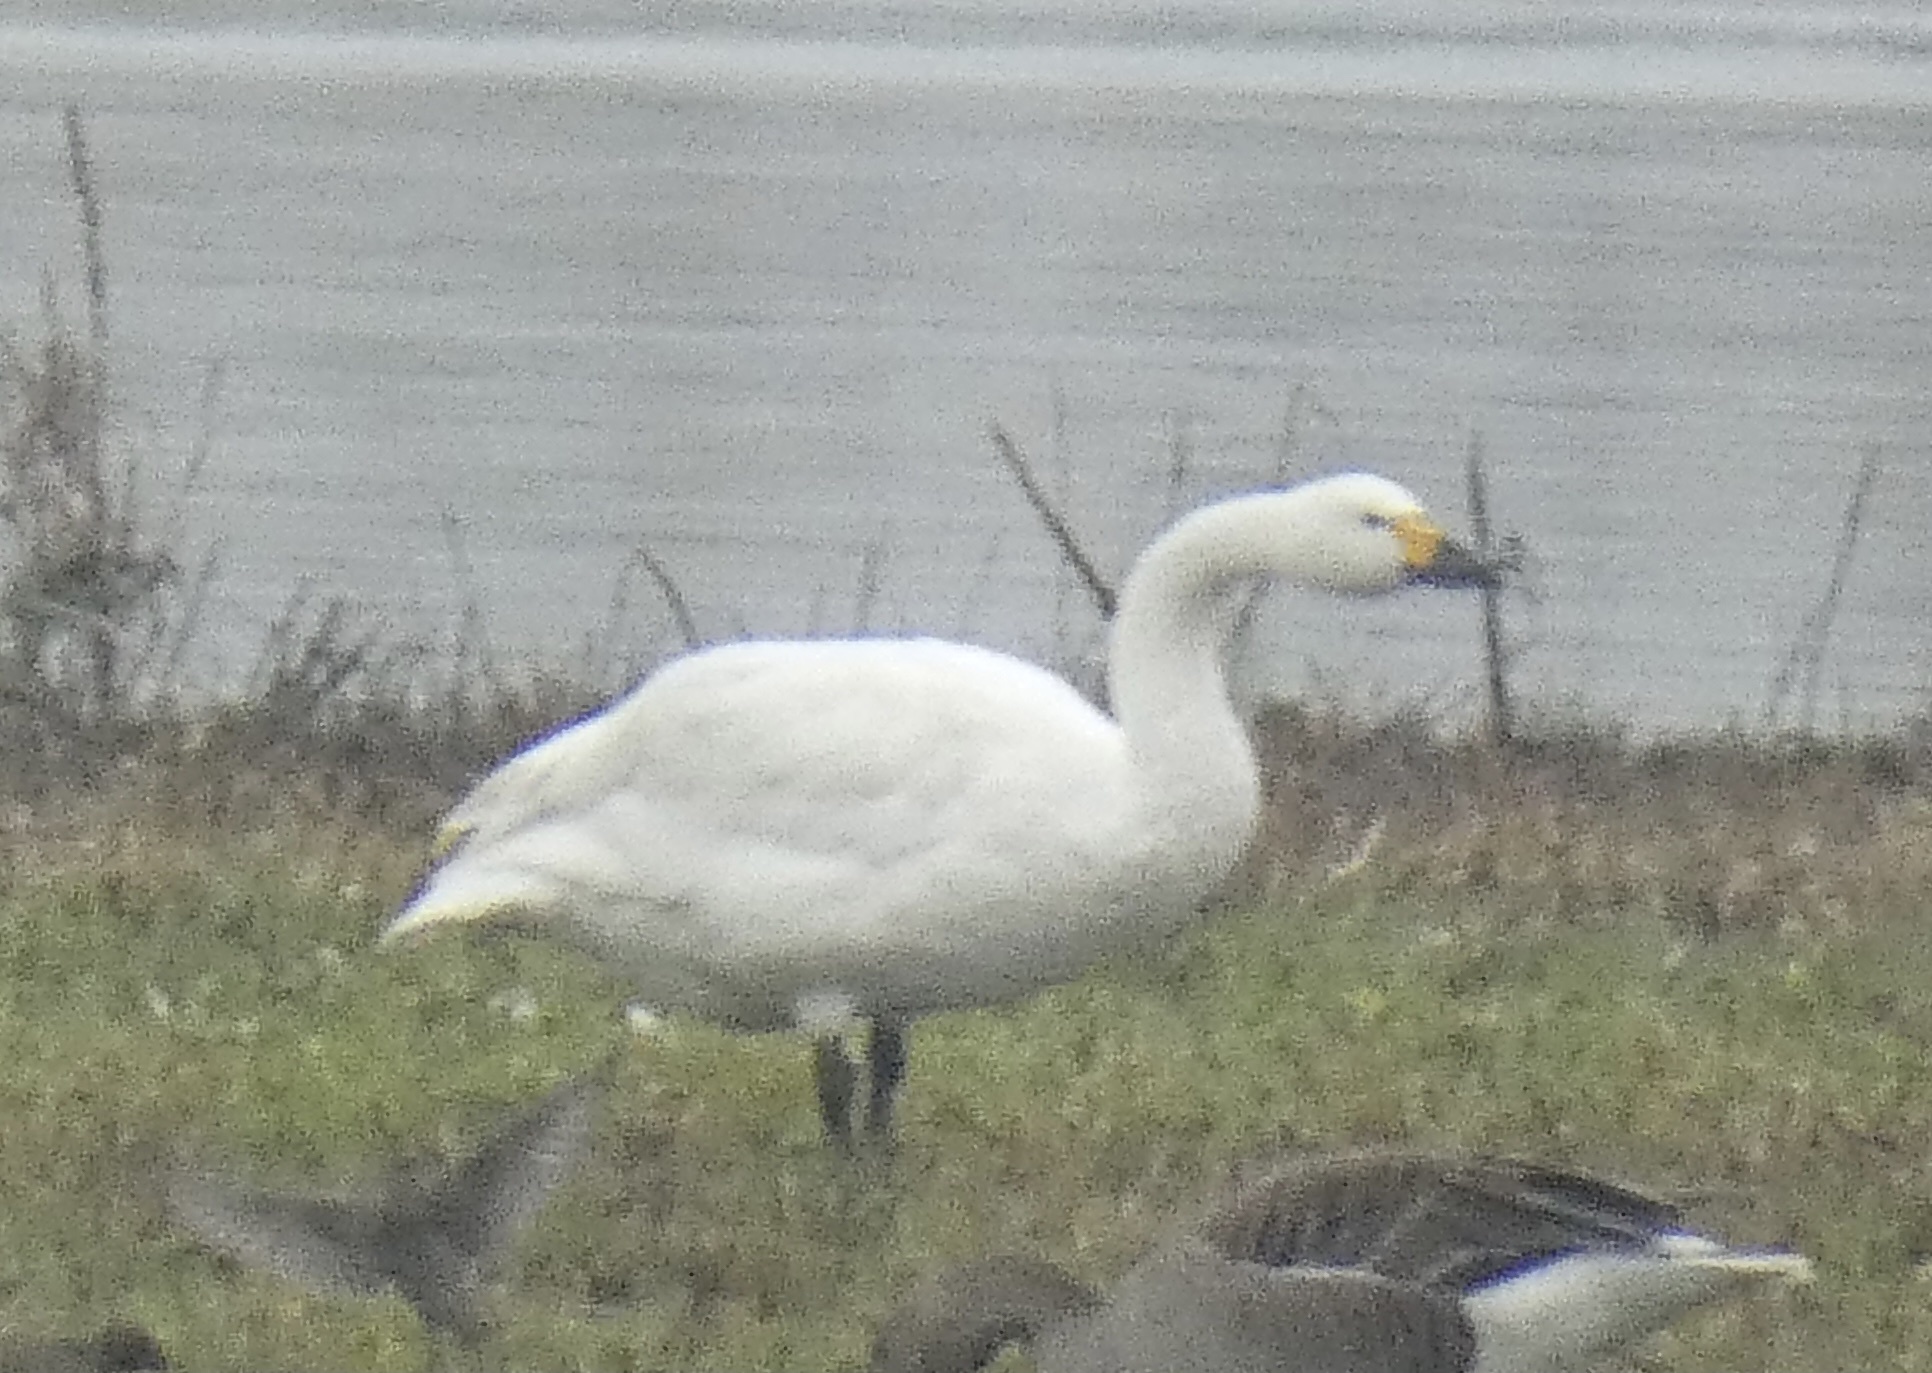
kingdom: Animalia
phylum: Chordata
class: Aves
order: Anseriformes
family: Anatidae
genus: Cygnus
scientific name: Cygnus columbianus
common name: Tundra swan
